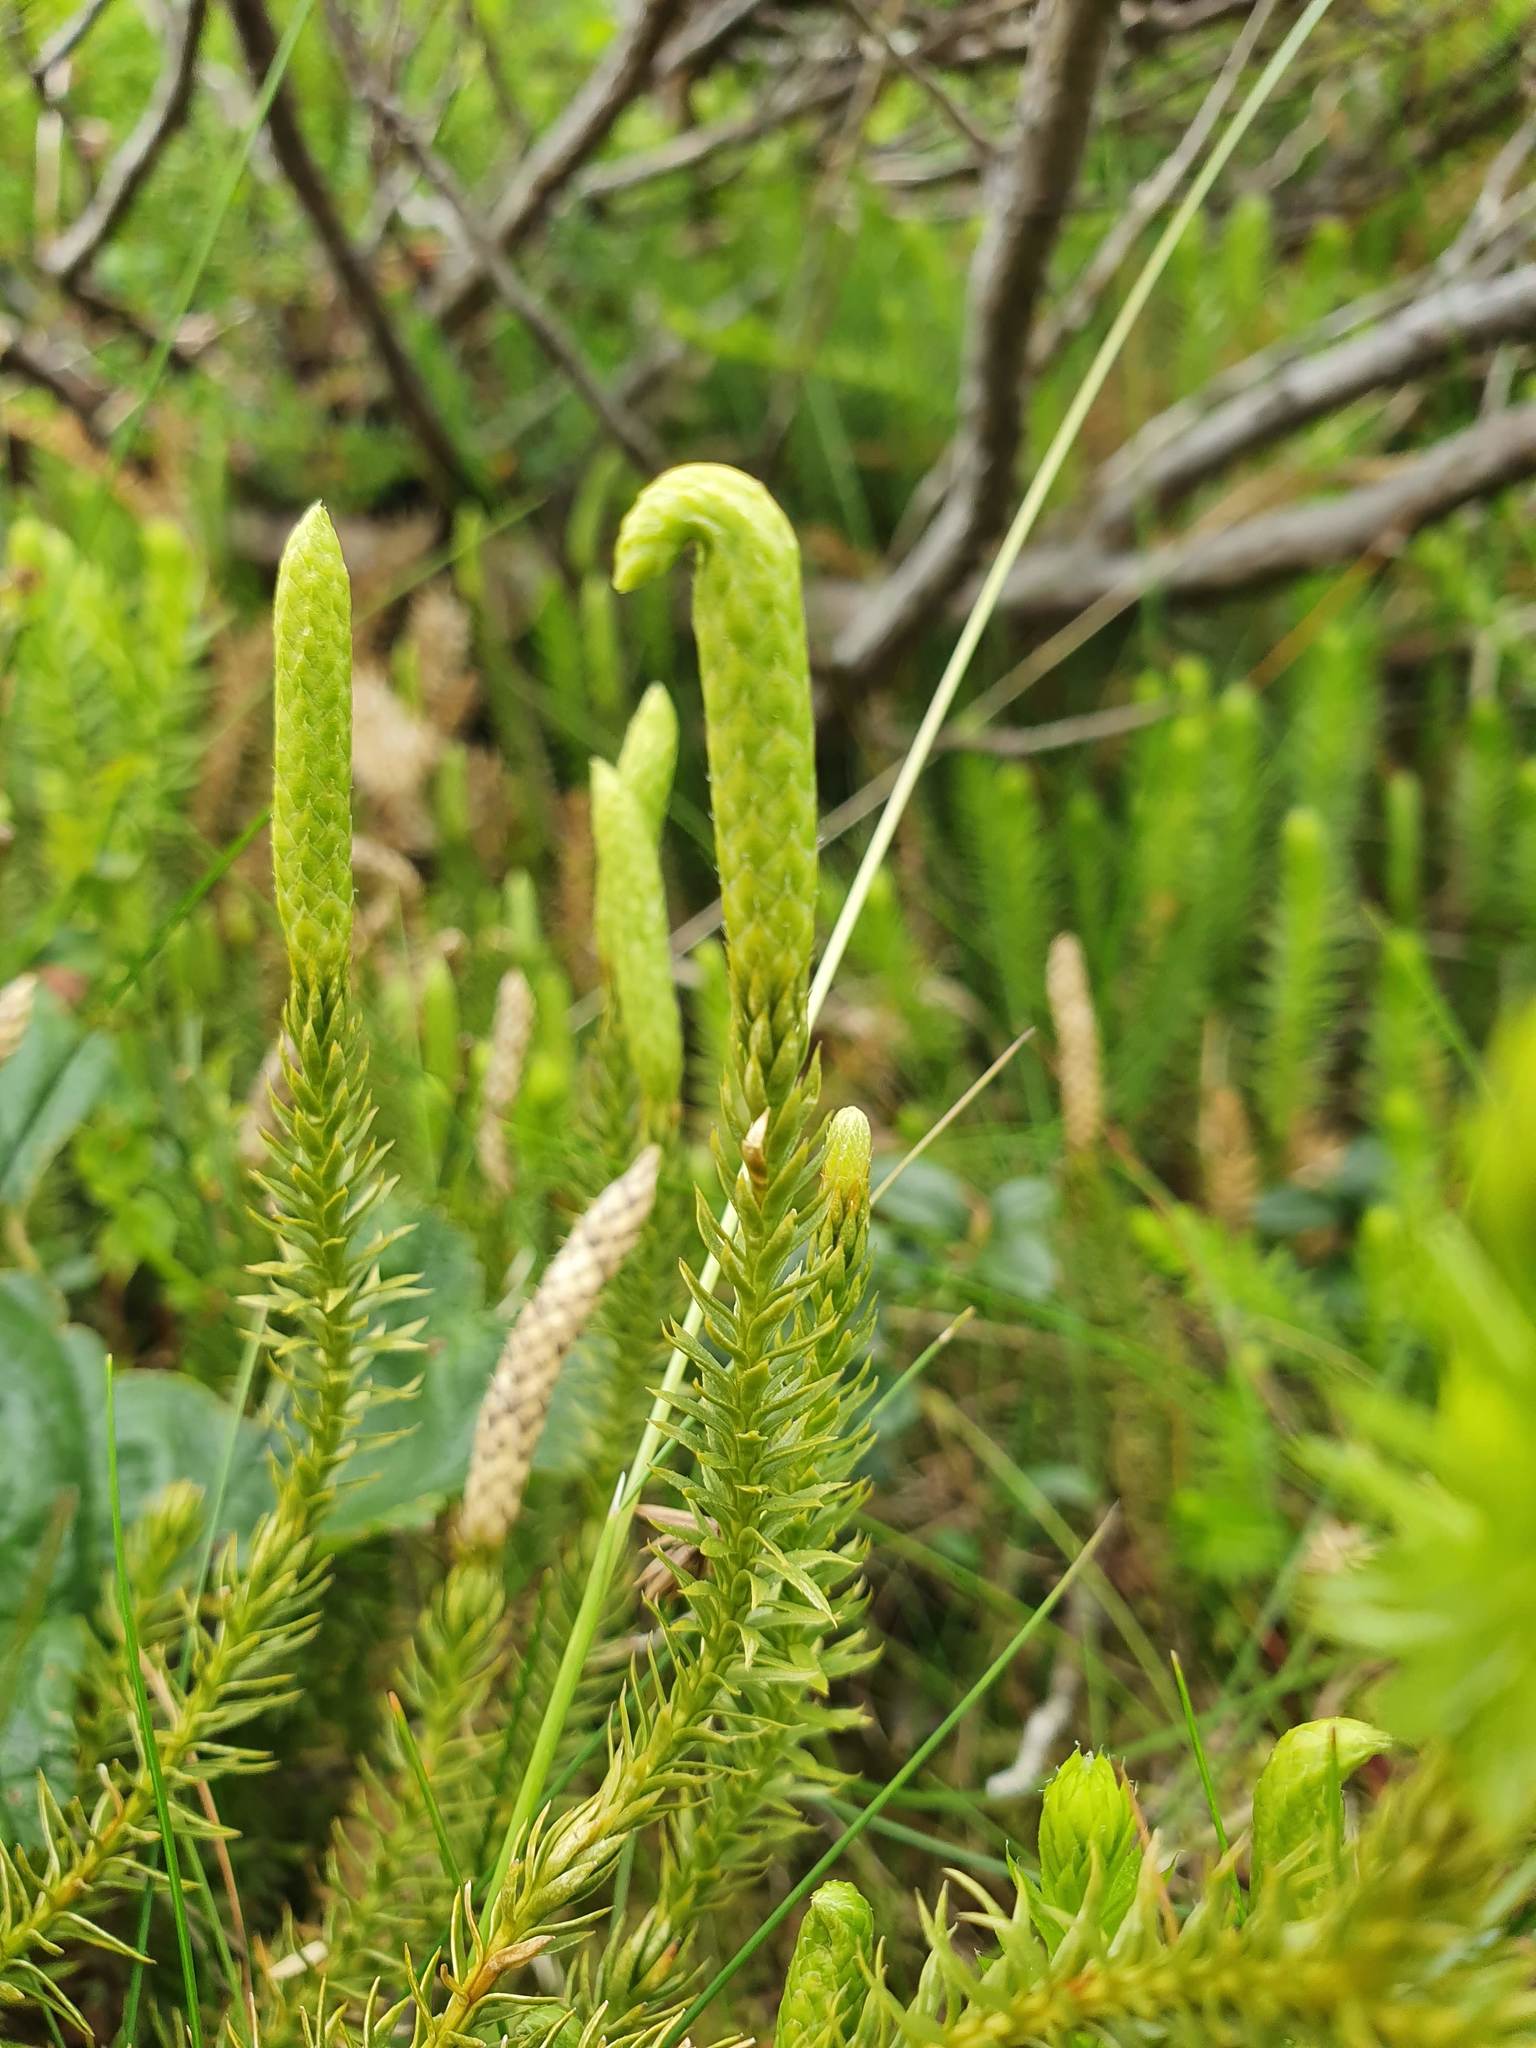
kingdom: Plantae
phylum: Tracheophyta
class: Lycopodiopsida
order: Lycopodiales
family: Lycopodiaceae
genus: Spinulum
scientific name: Spinulum annotinum
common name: Interrupted club-moss
